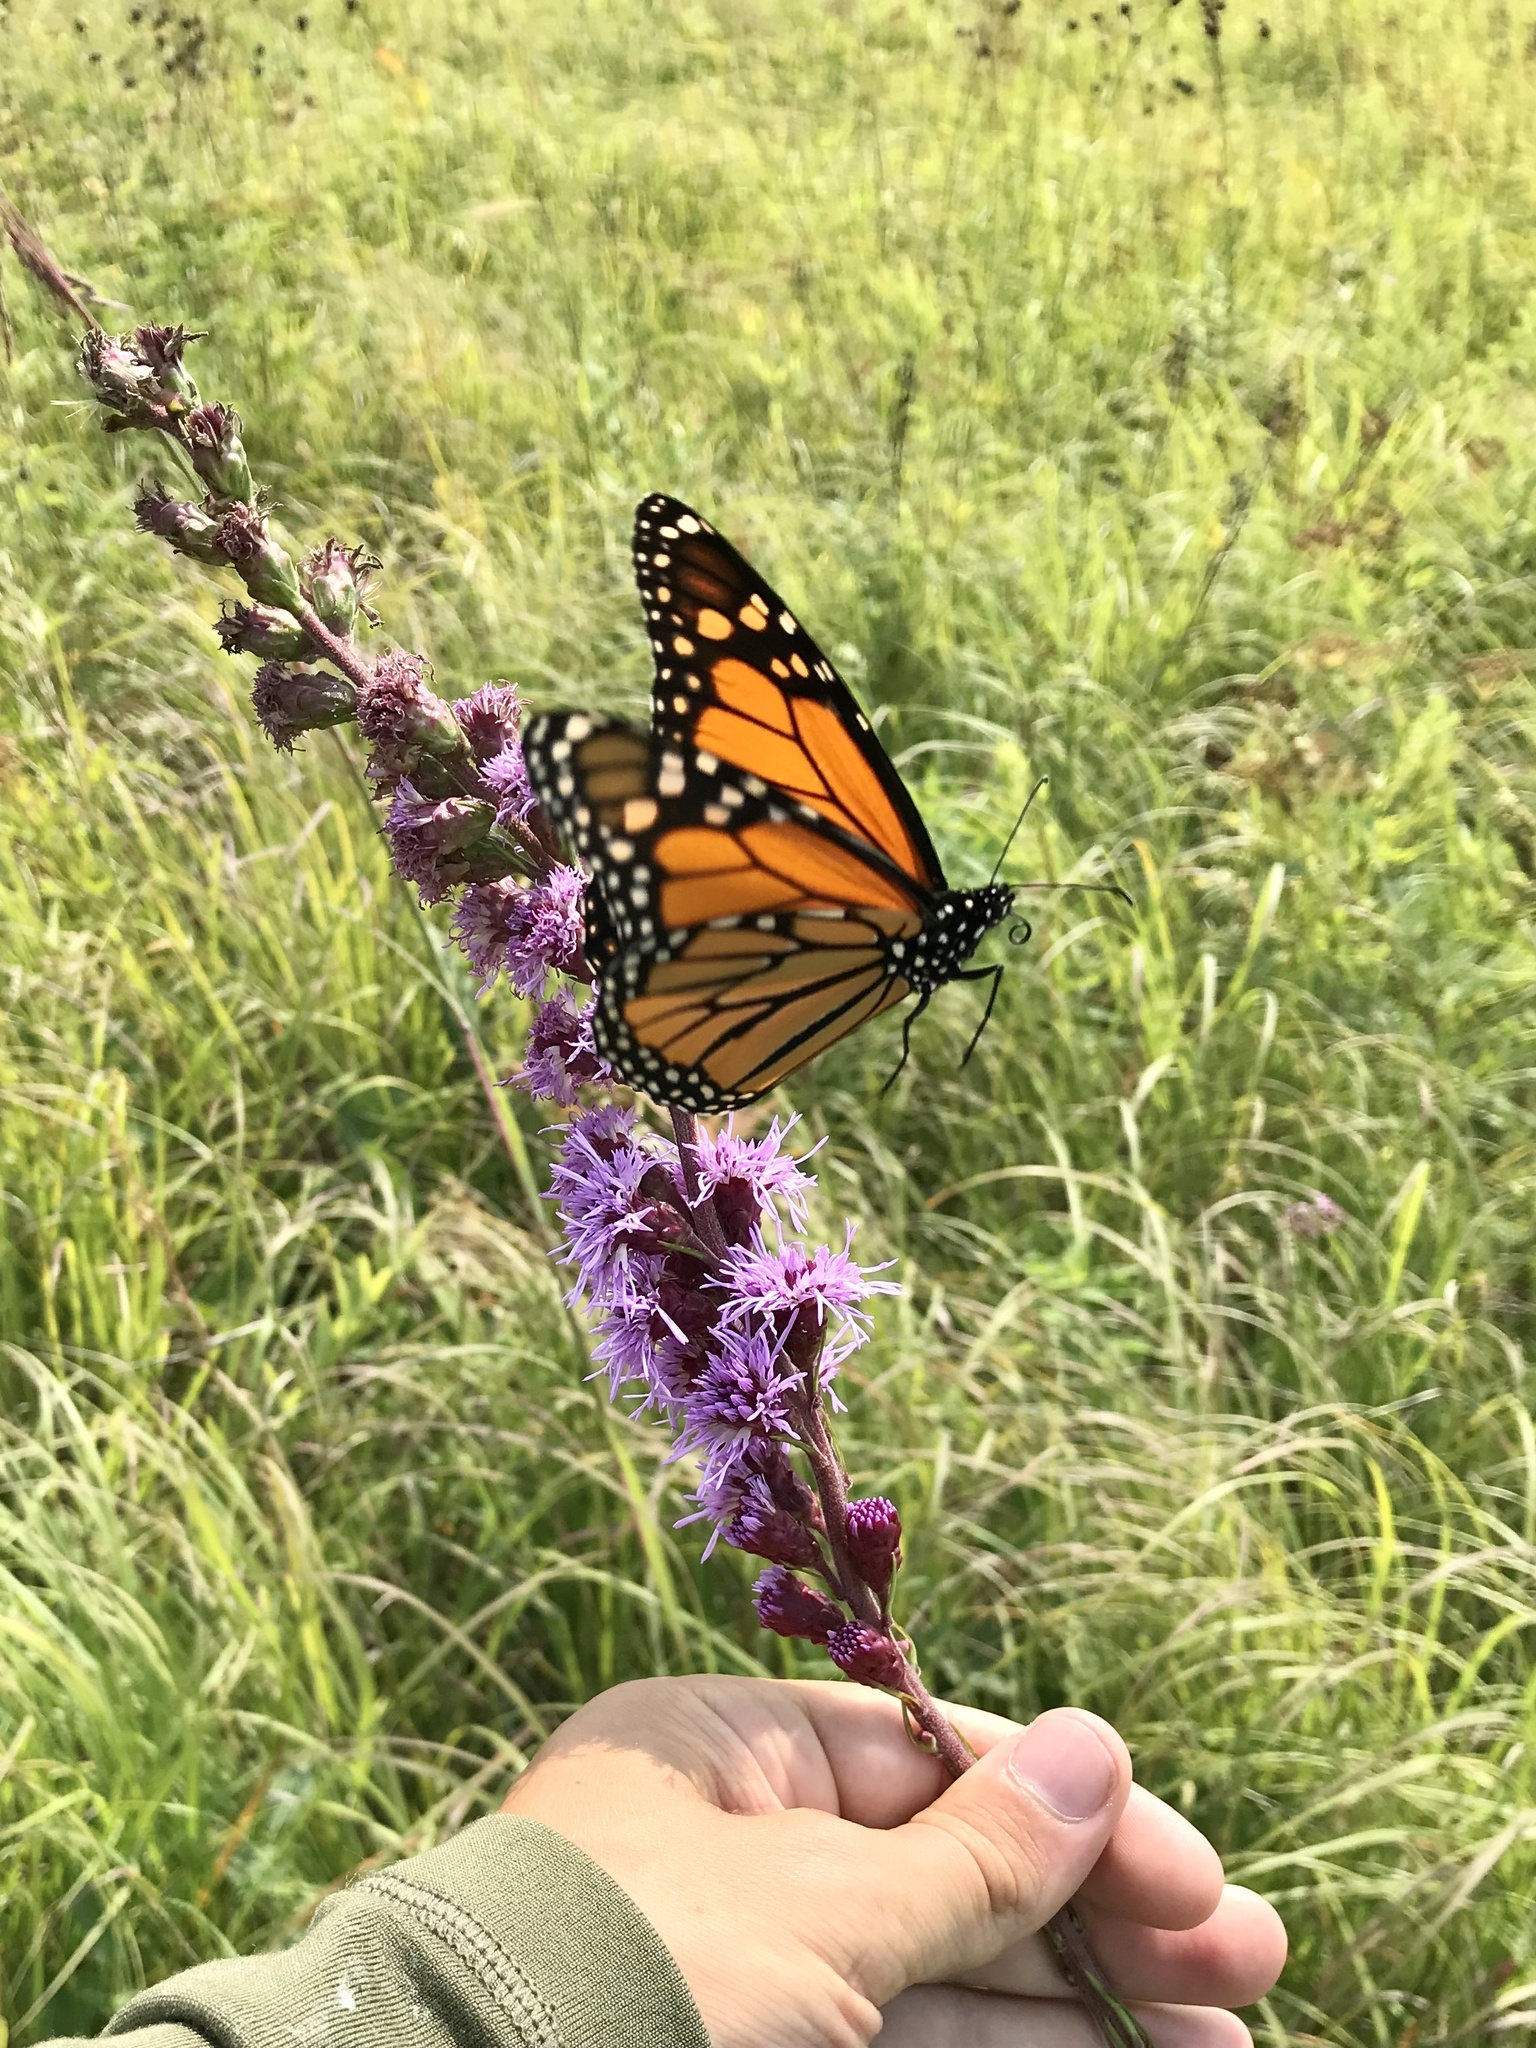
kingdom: Animalia
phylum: Arthropoda
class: Insecta
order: Lepidoptera
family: Nymphalidae
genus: Danaus
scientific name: Danaus plexippus
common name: Monarch
